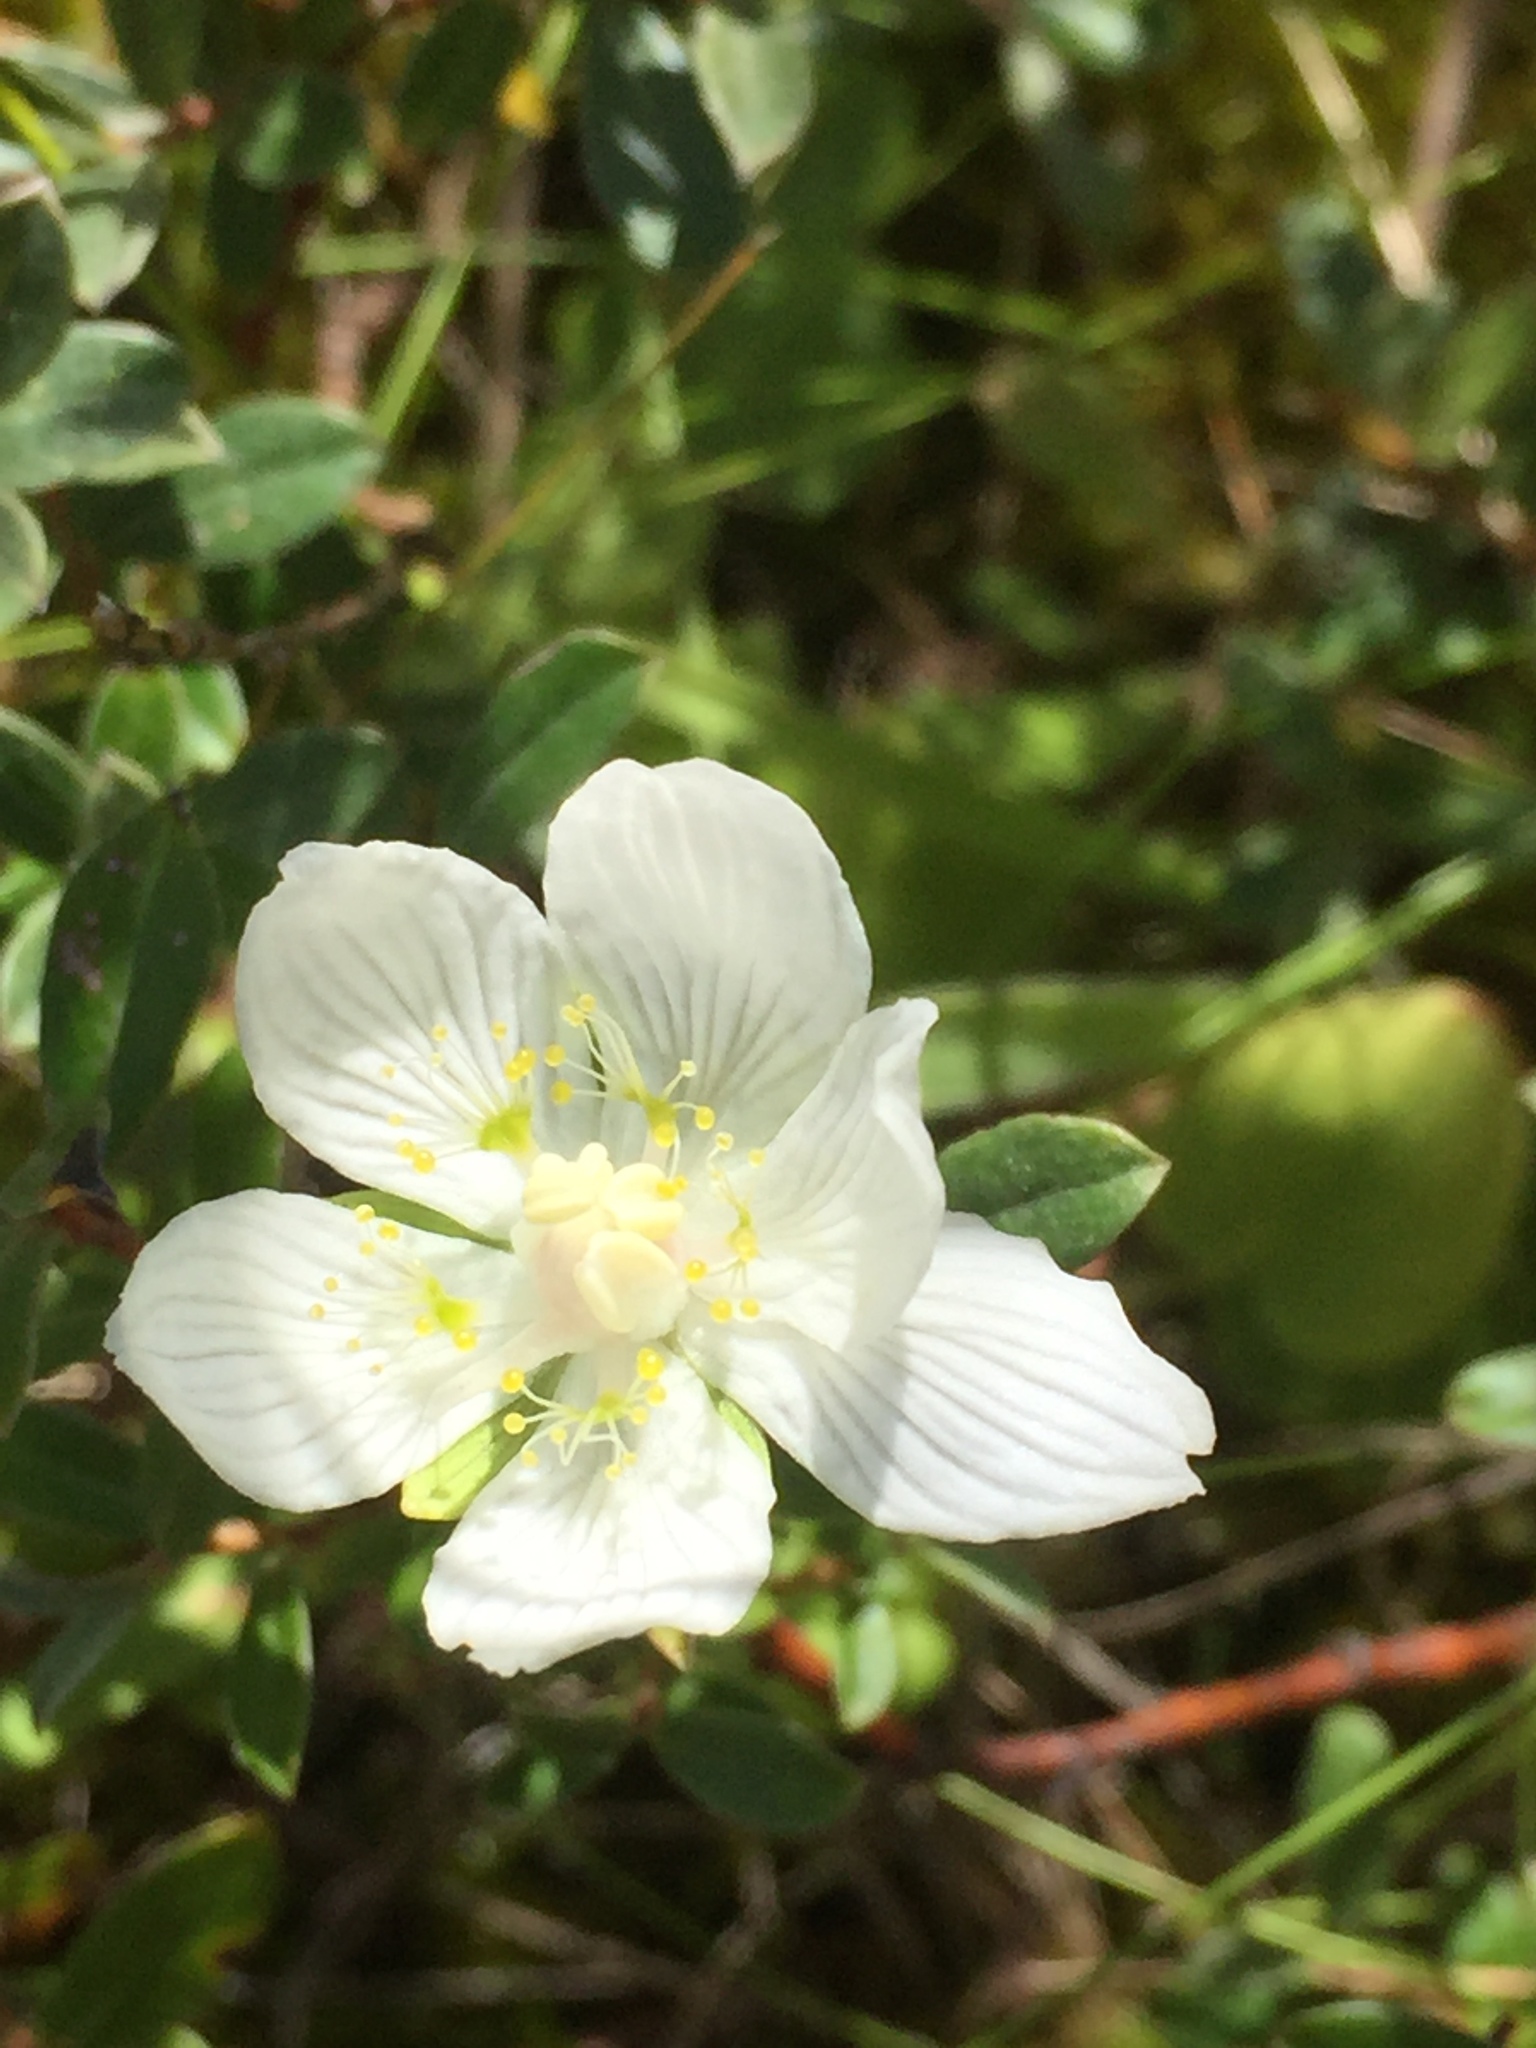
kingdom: Plantae
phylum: Tracheophyta
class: Magnoliopsida
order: Celastrales
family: Parnassiaceae
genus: Parnassia
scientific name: Parnassia palustris
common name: Grass-of-parnassus
